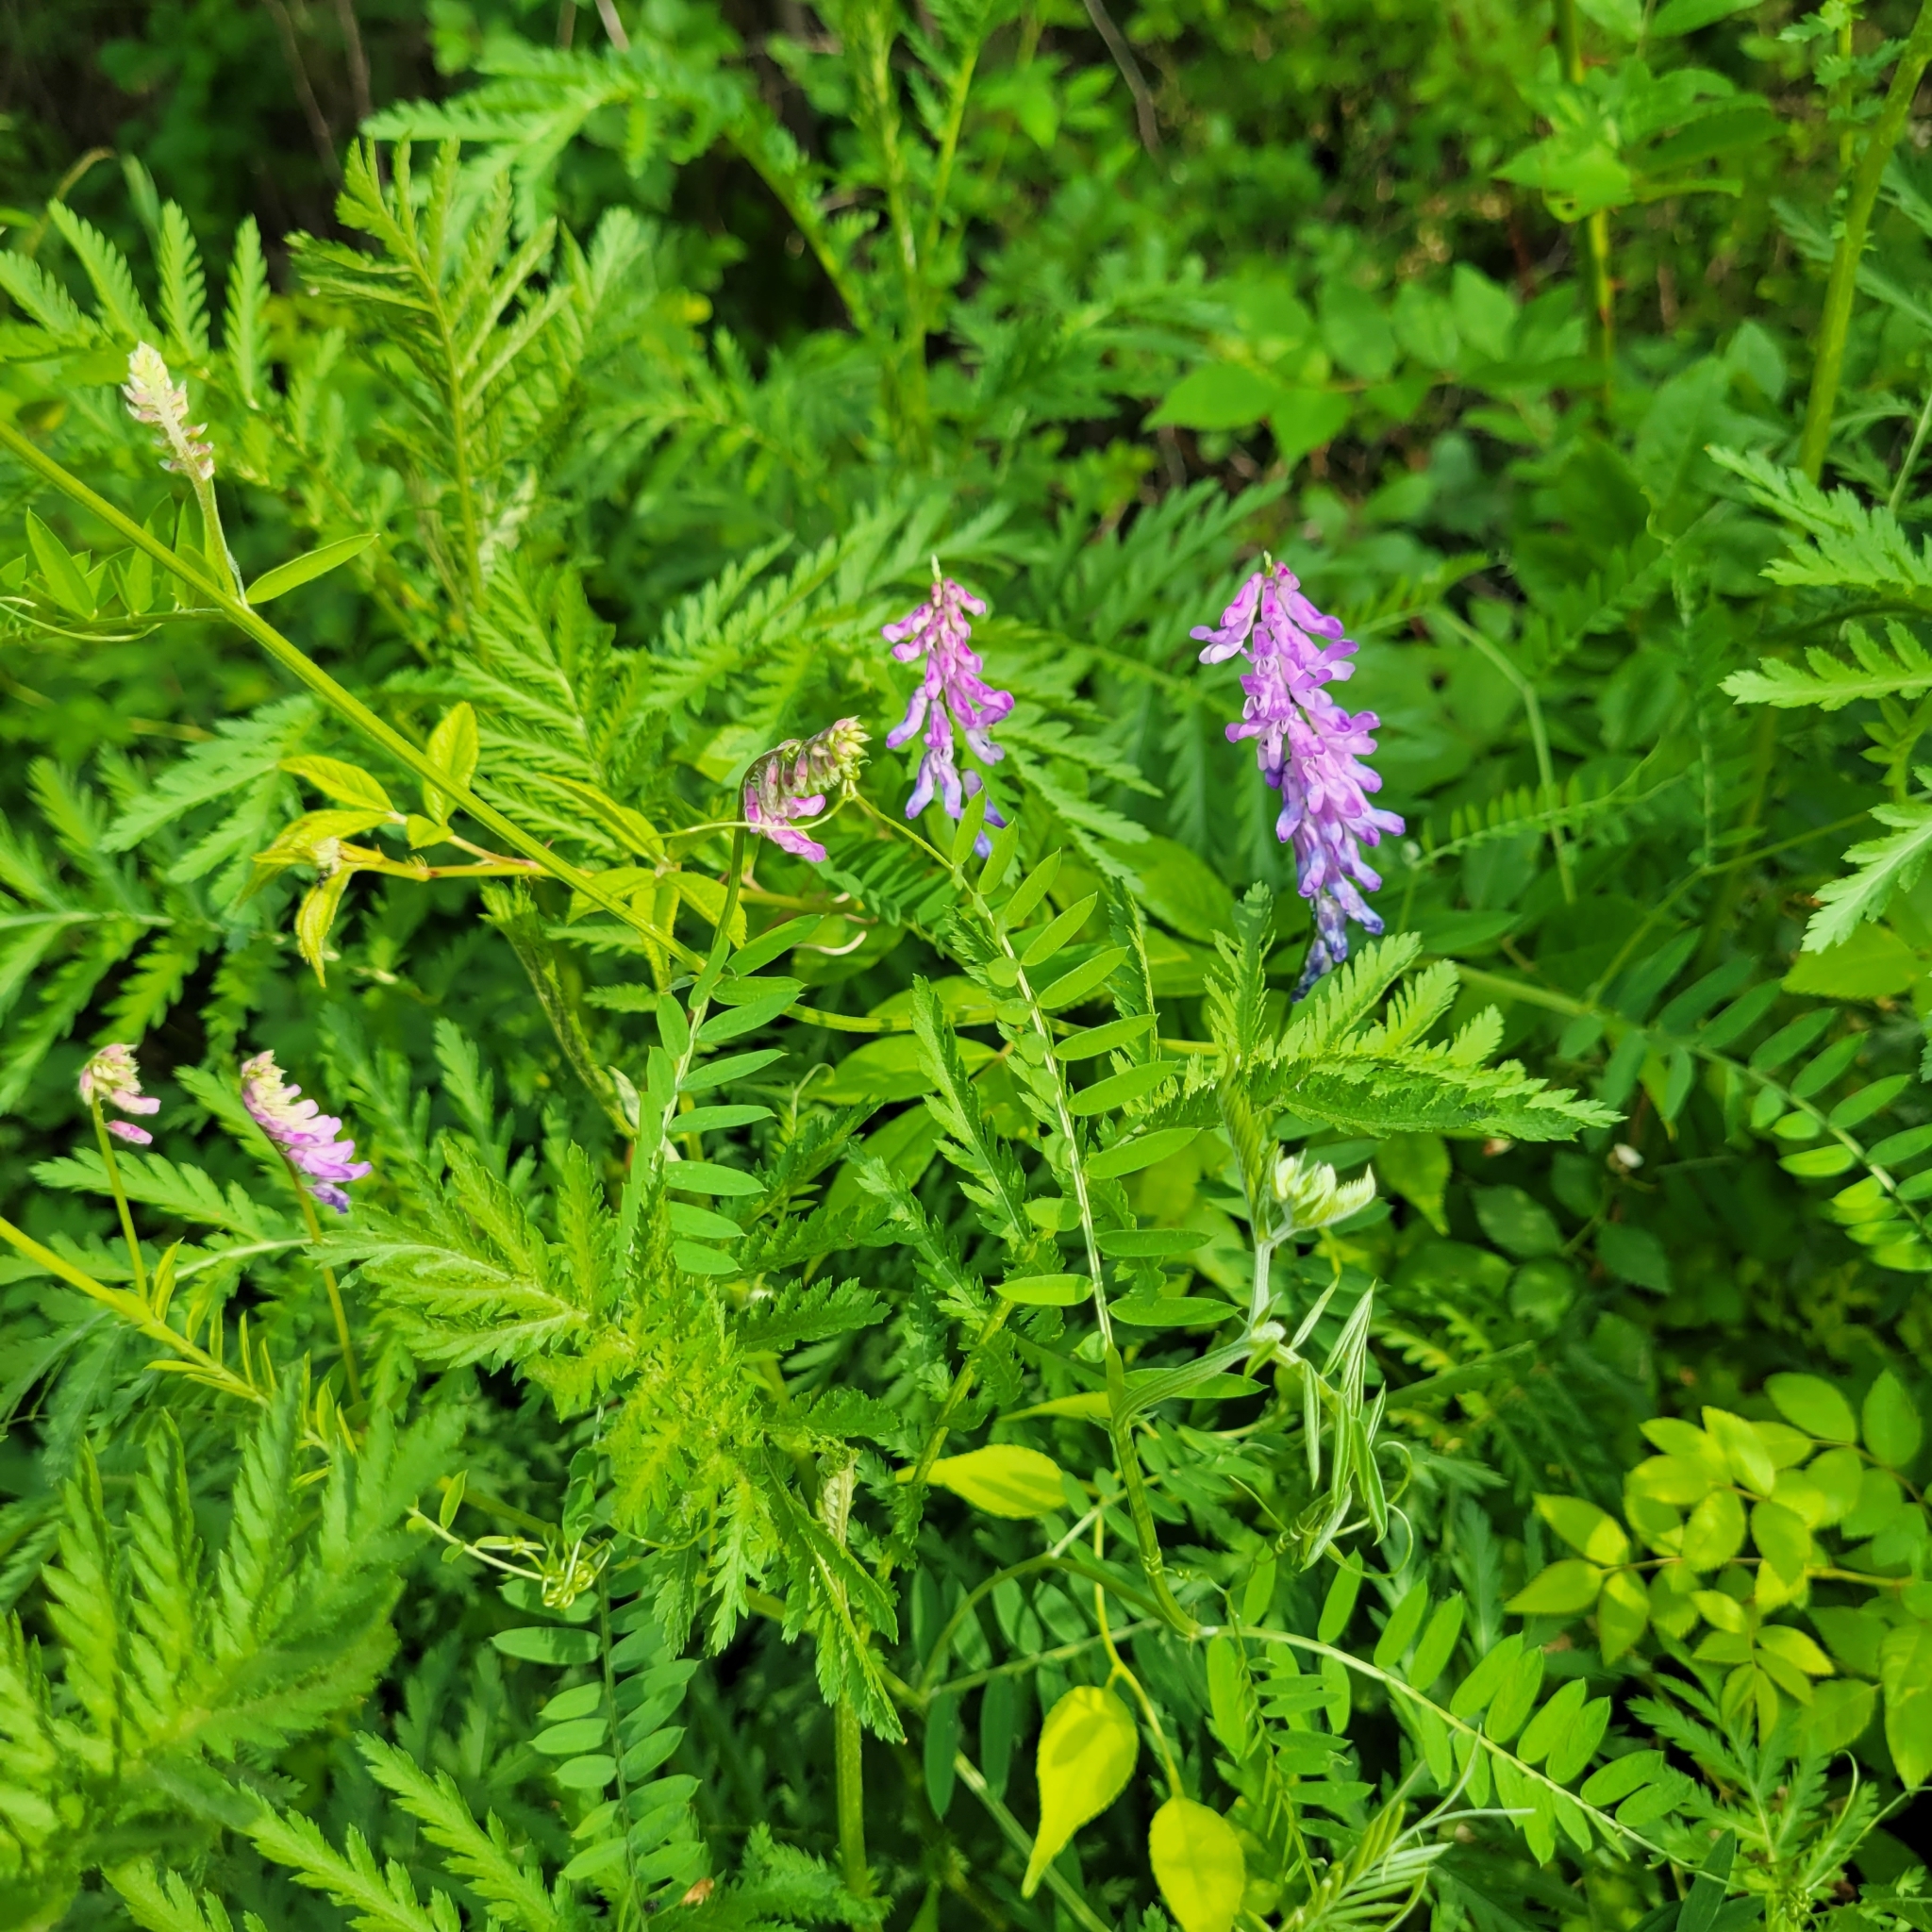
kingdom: Plantae
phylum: Tracheophyta
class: Magnoliopsida
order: Fabales
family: Fabaceae
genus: Vicia
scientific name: Vicia cracca
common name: Bird vetch
